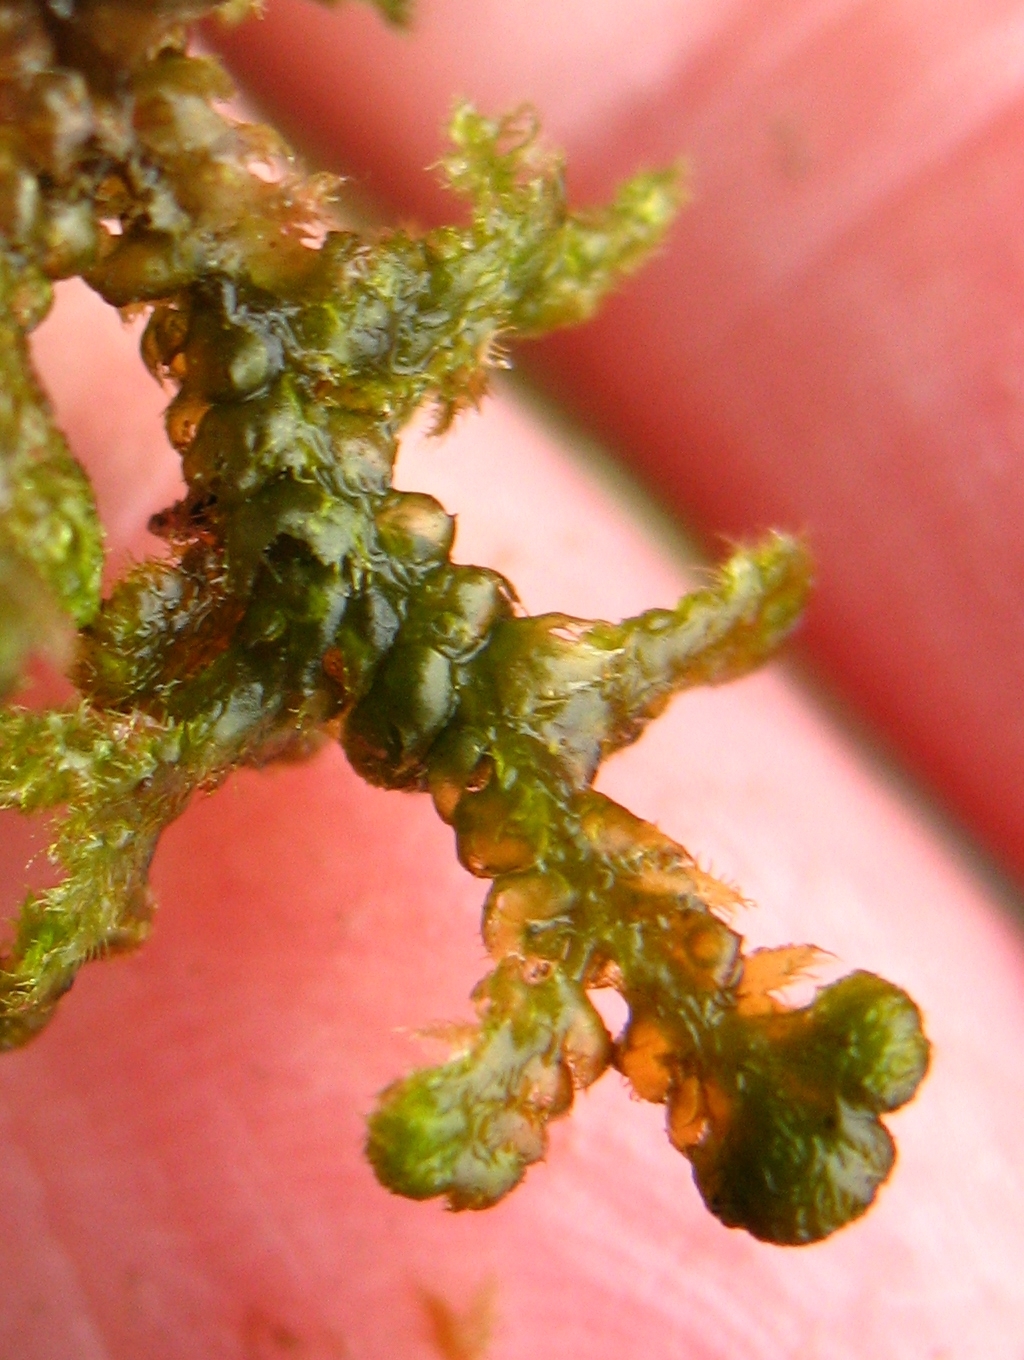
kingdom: Plantae
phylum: Marchantiophyta
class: Jungermanniopsida
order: Ptilidiales
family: Ptilidiaceae
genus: Ptilidium
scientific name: Ptilidium ciliare
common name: Ciliate fringewort
